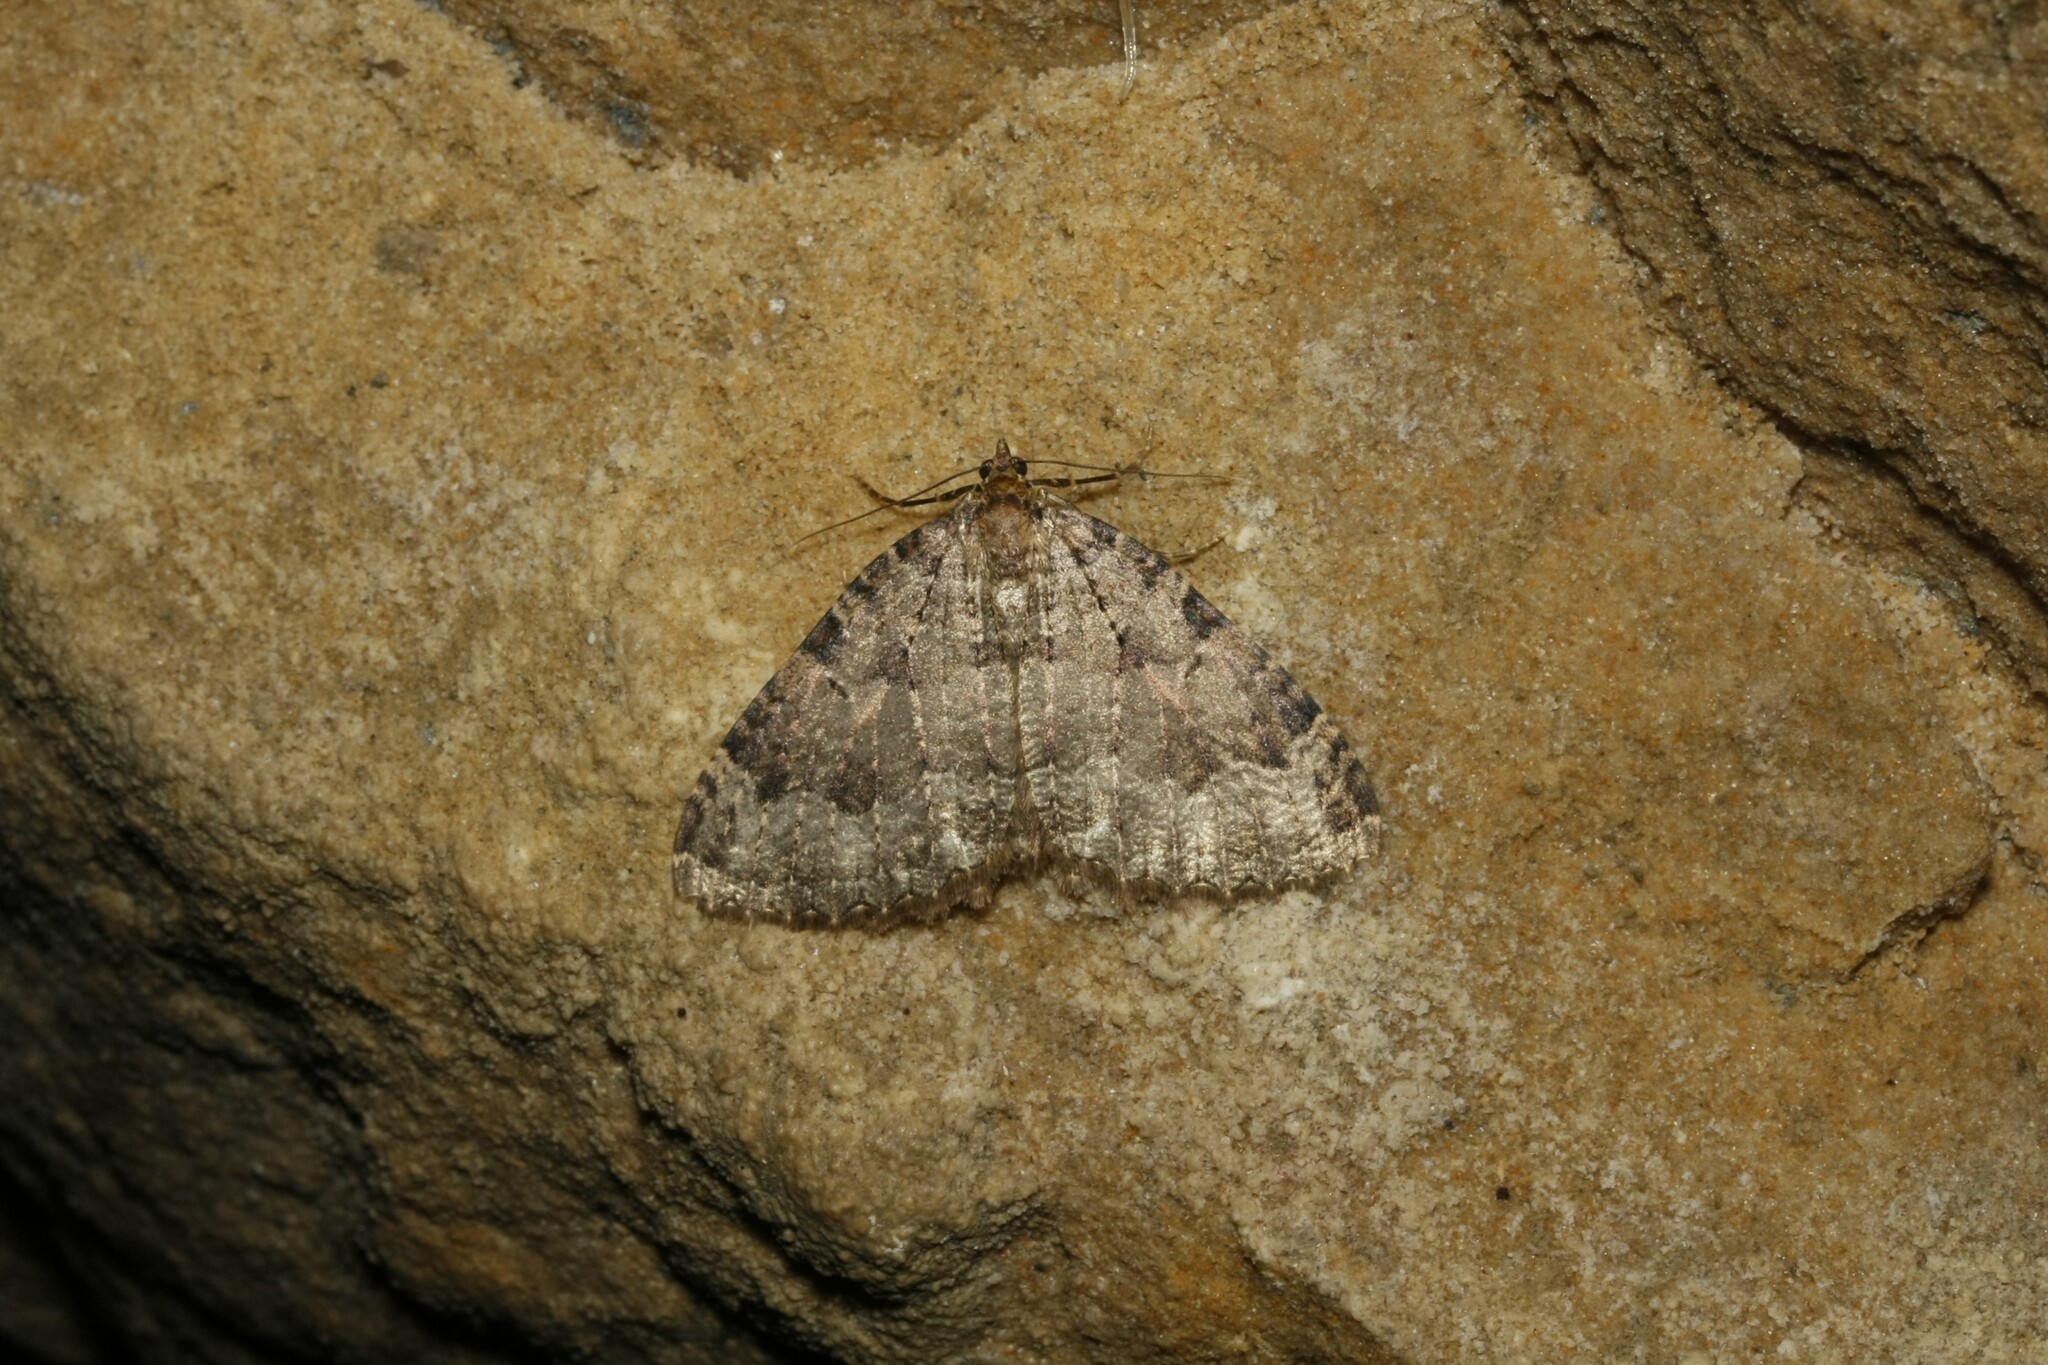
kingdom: Animalia
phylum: Arthropoda
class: Insecta
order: Lepidoptera
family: Geometridae
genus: Triphosa
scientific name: Triphosa dubitata
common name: Tissue
